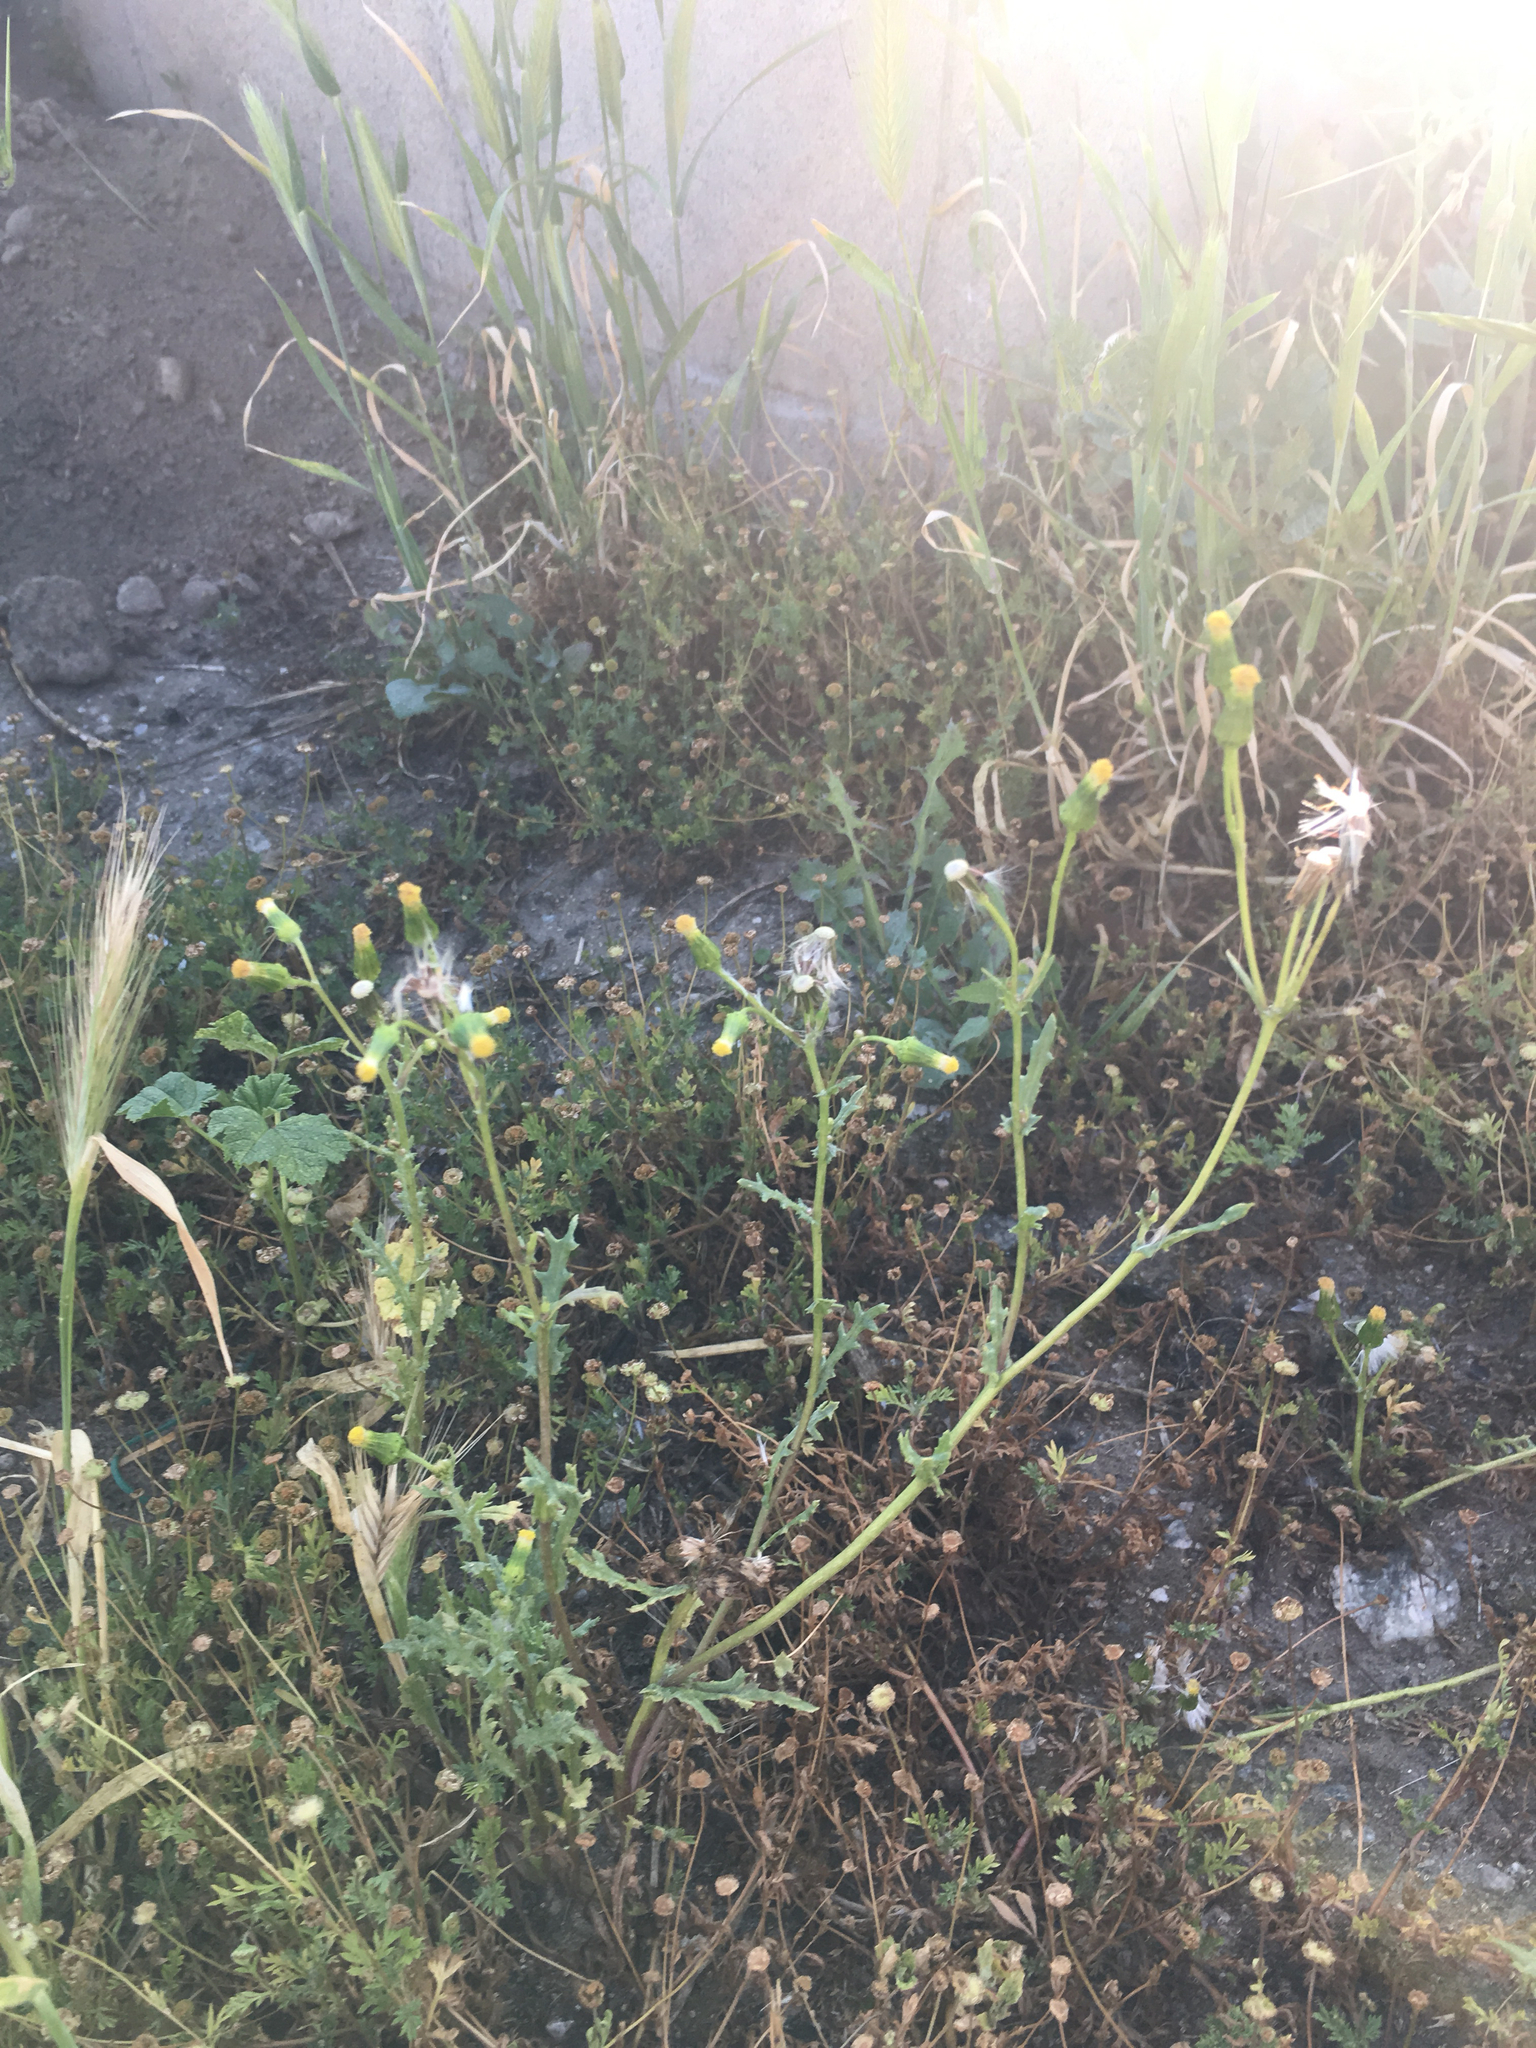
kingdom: Plantae
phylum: Tracheophyta
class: Magnoliopsida
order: Asterales
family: Asteraceae
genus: Senecio
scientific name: Senecio vulgaris
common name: Old-man-in-the-spring
